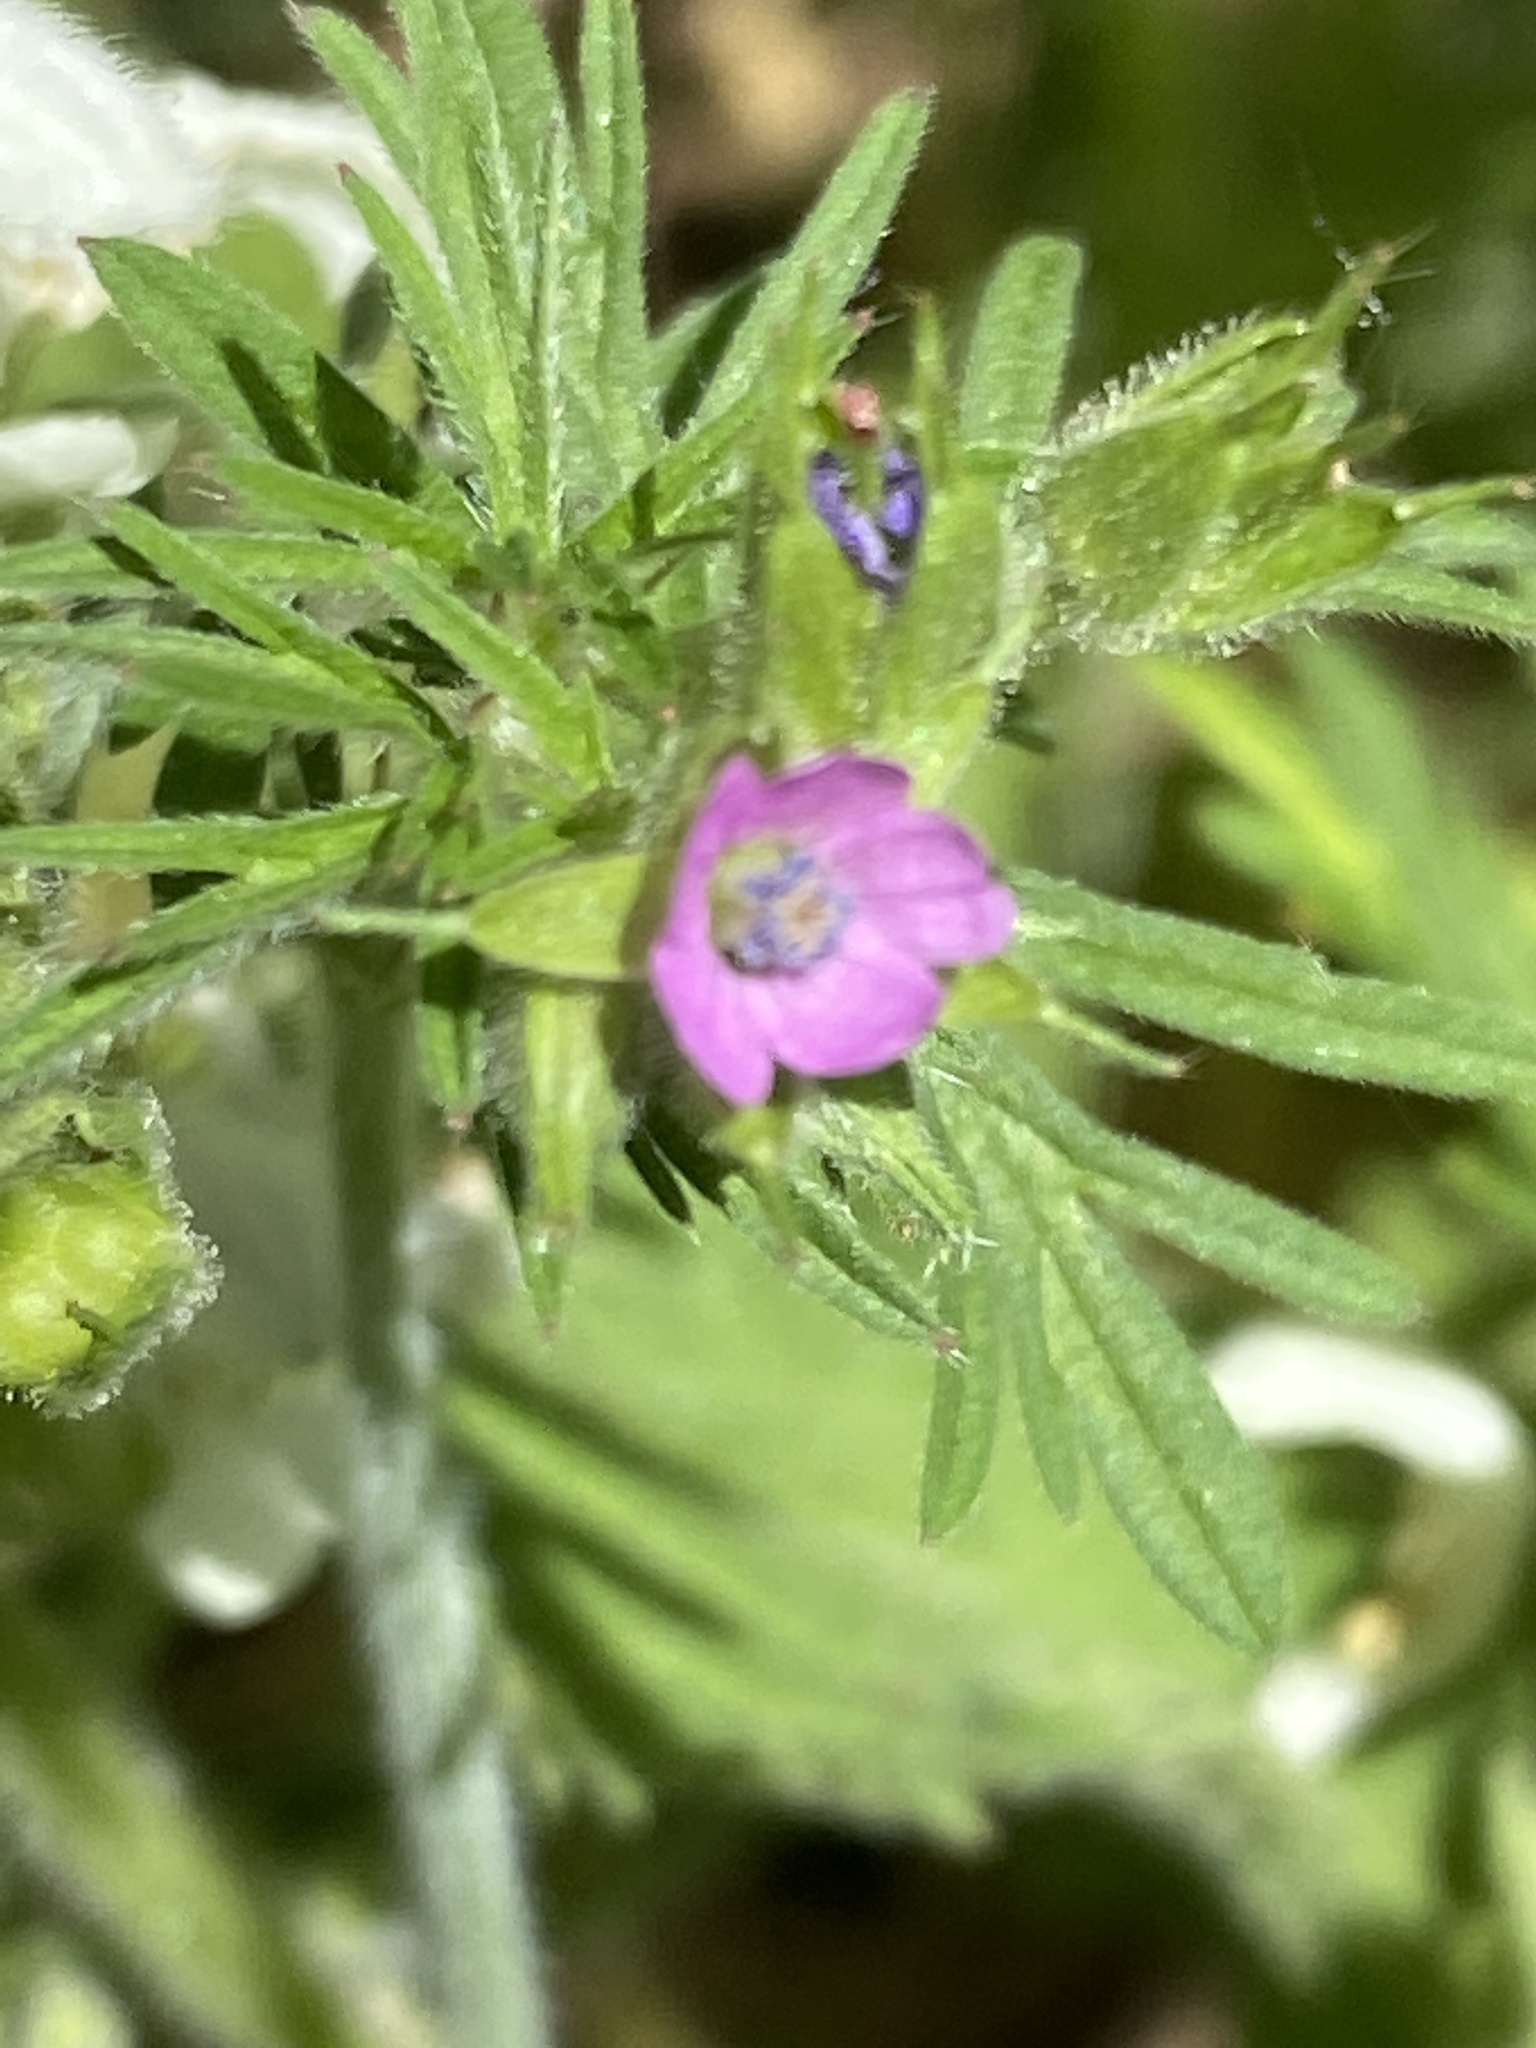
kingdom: Plantae
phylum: Tracheophyta
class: Magnoliopsida
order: Geraniales
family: Geraniaceae
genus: Geranium
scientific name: Geranium dissectum
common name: Cut-leaved crane's-bill
